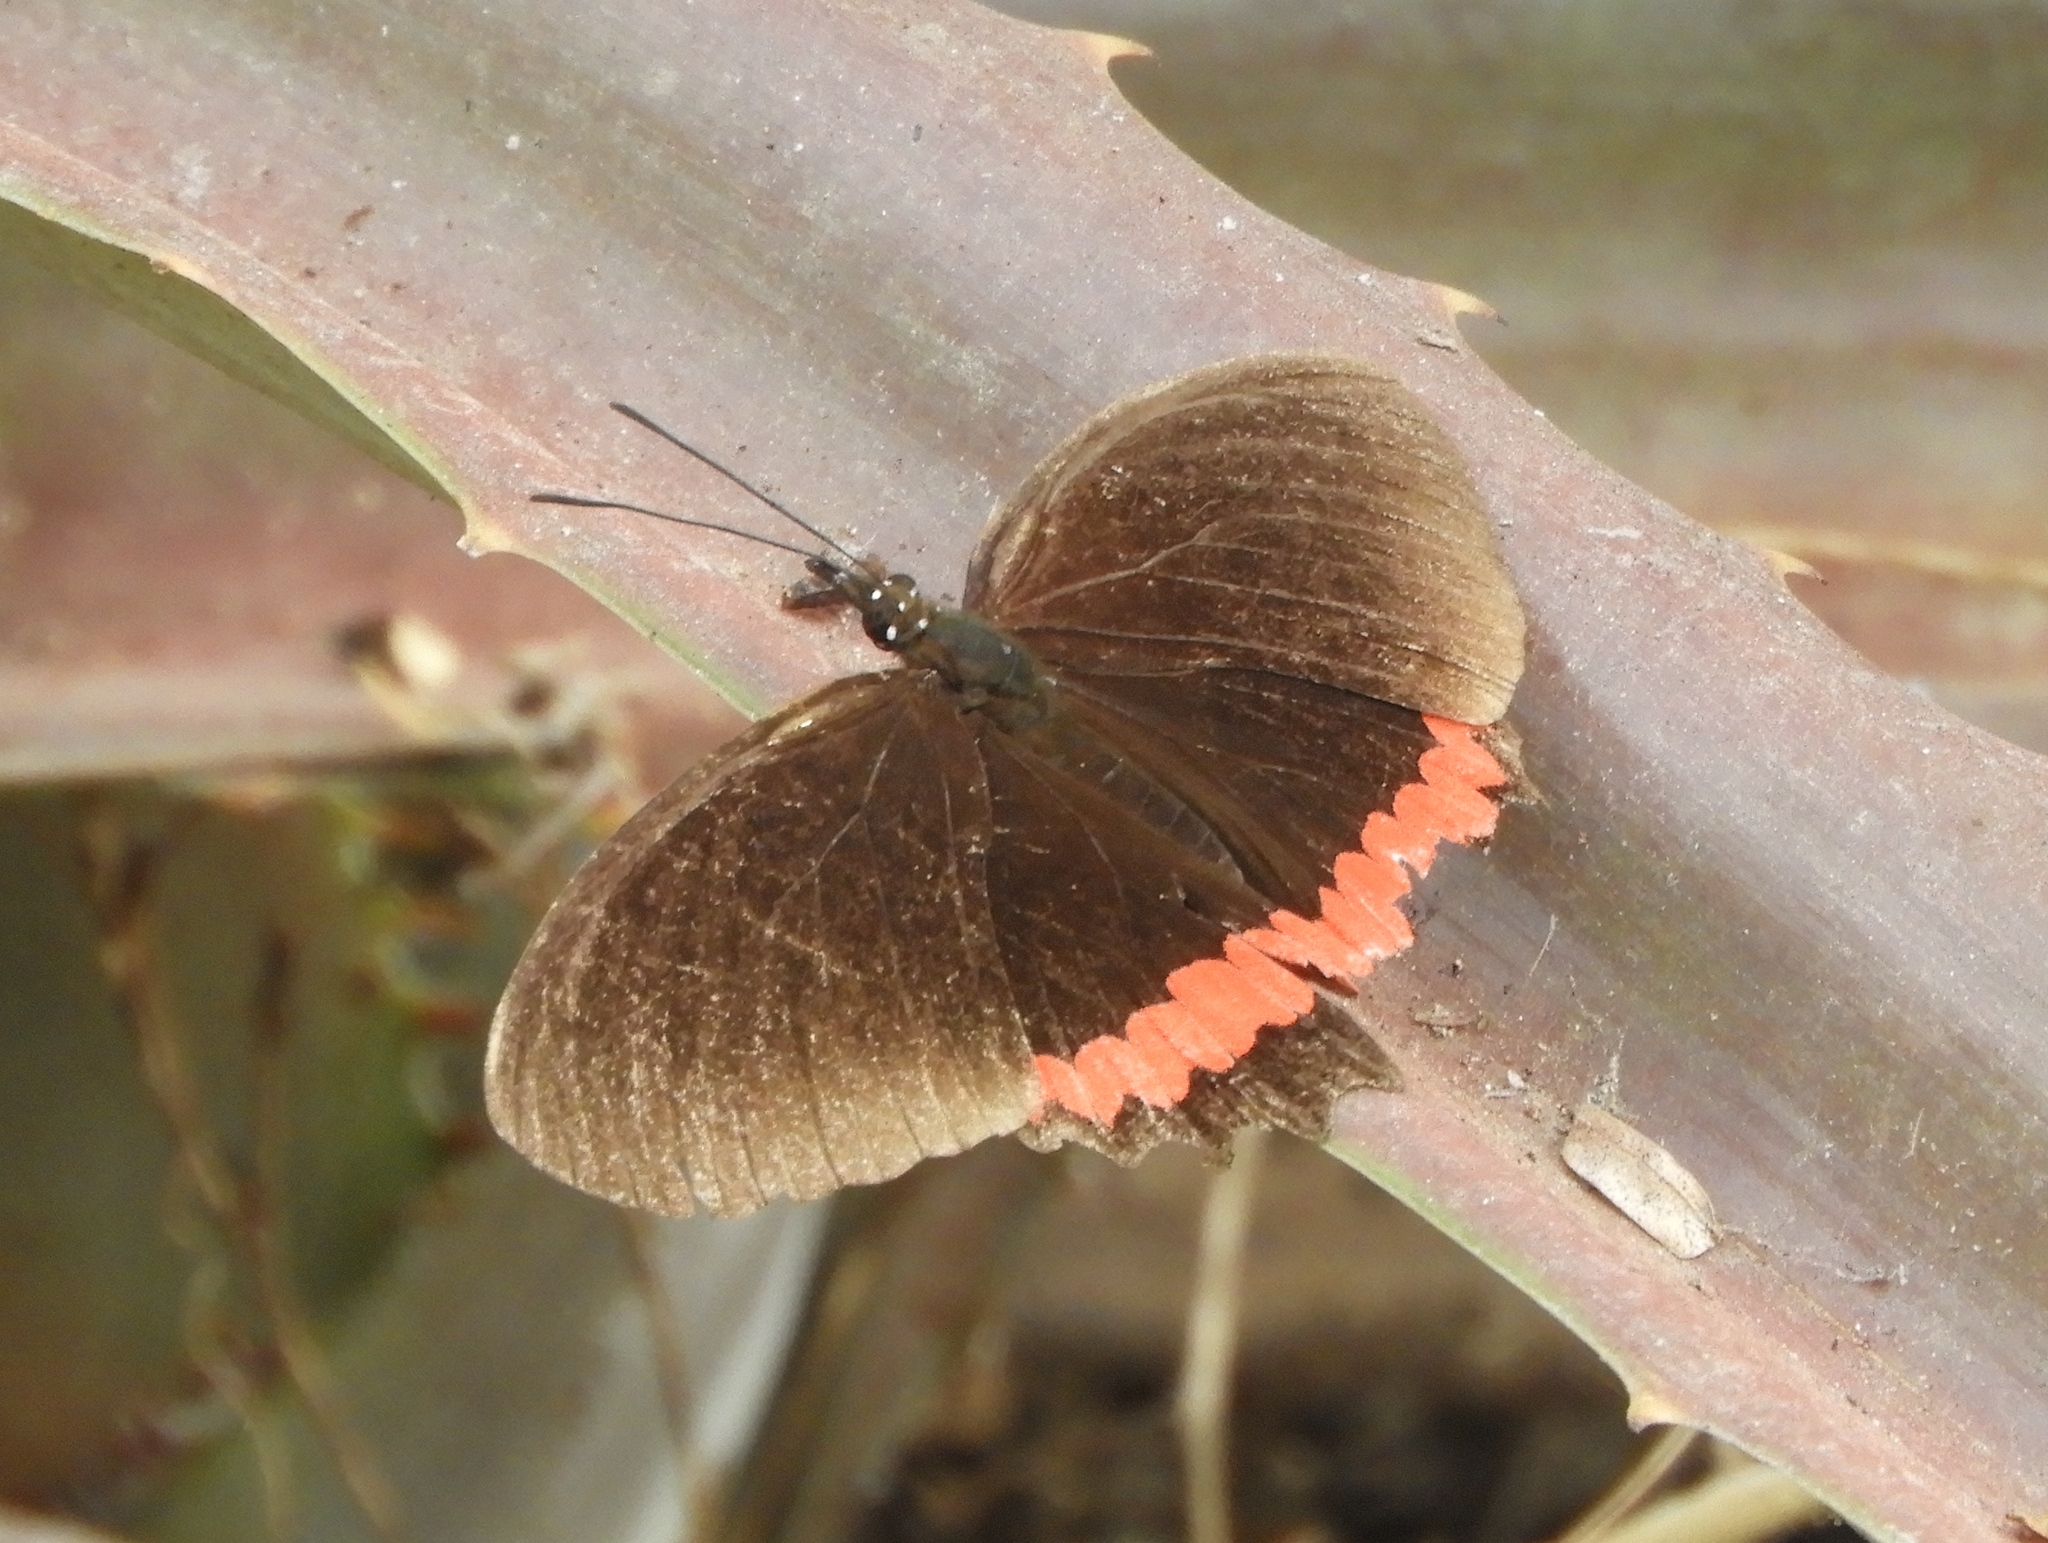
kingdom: Animalia
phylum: Arthropoda
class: Insecta
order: Lepidoptera
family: Nymphalidae
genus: Biblis
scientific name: Biblis aganisa
